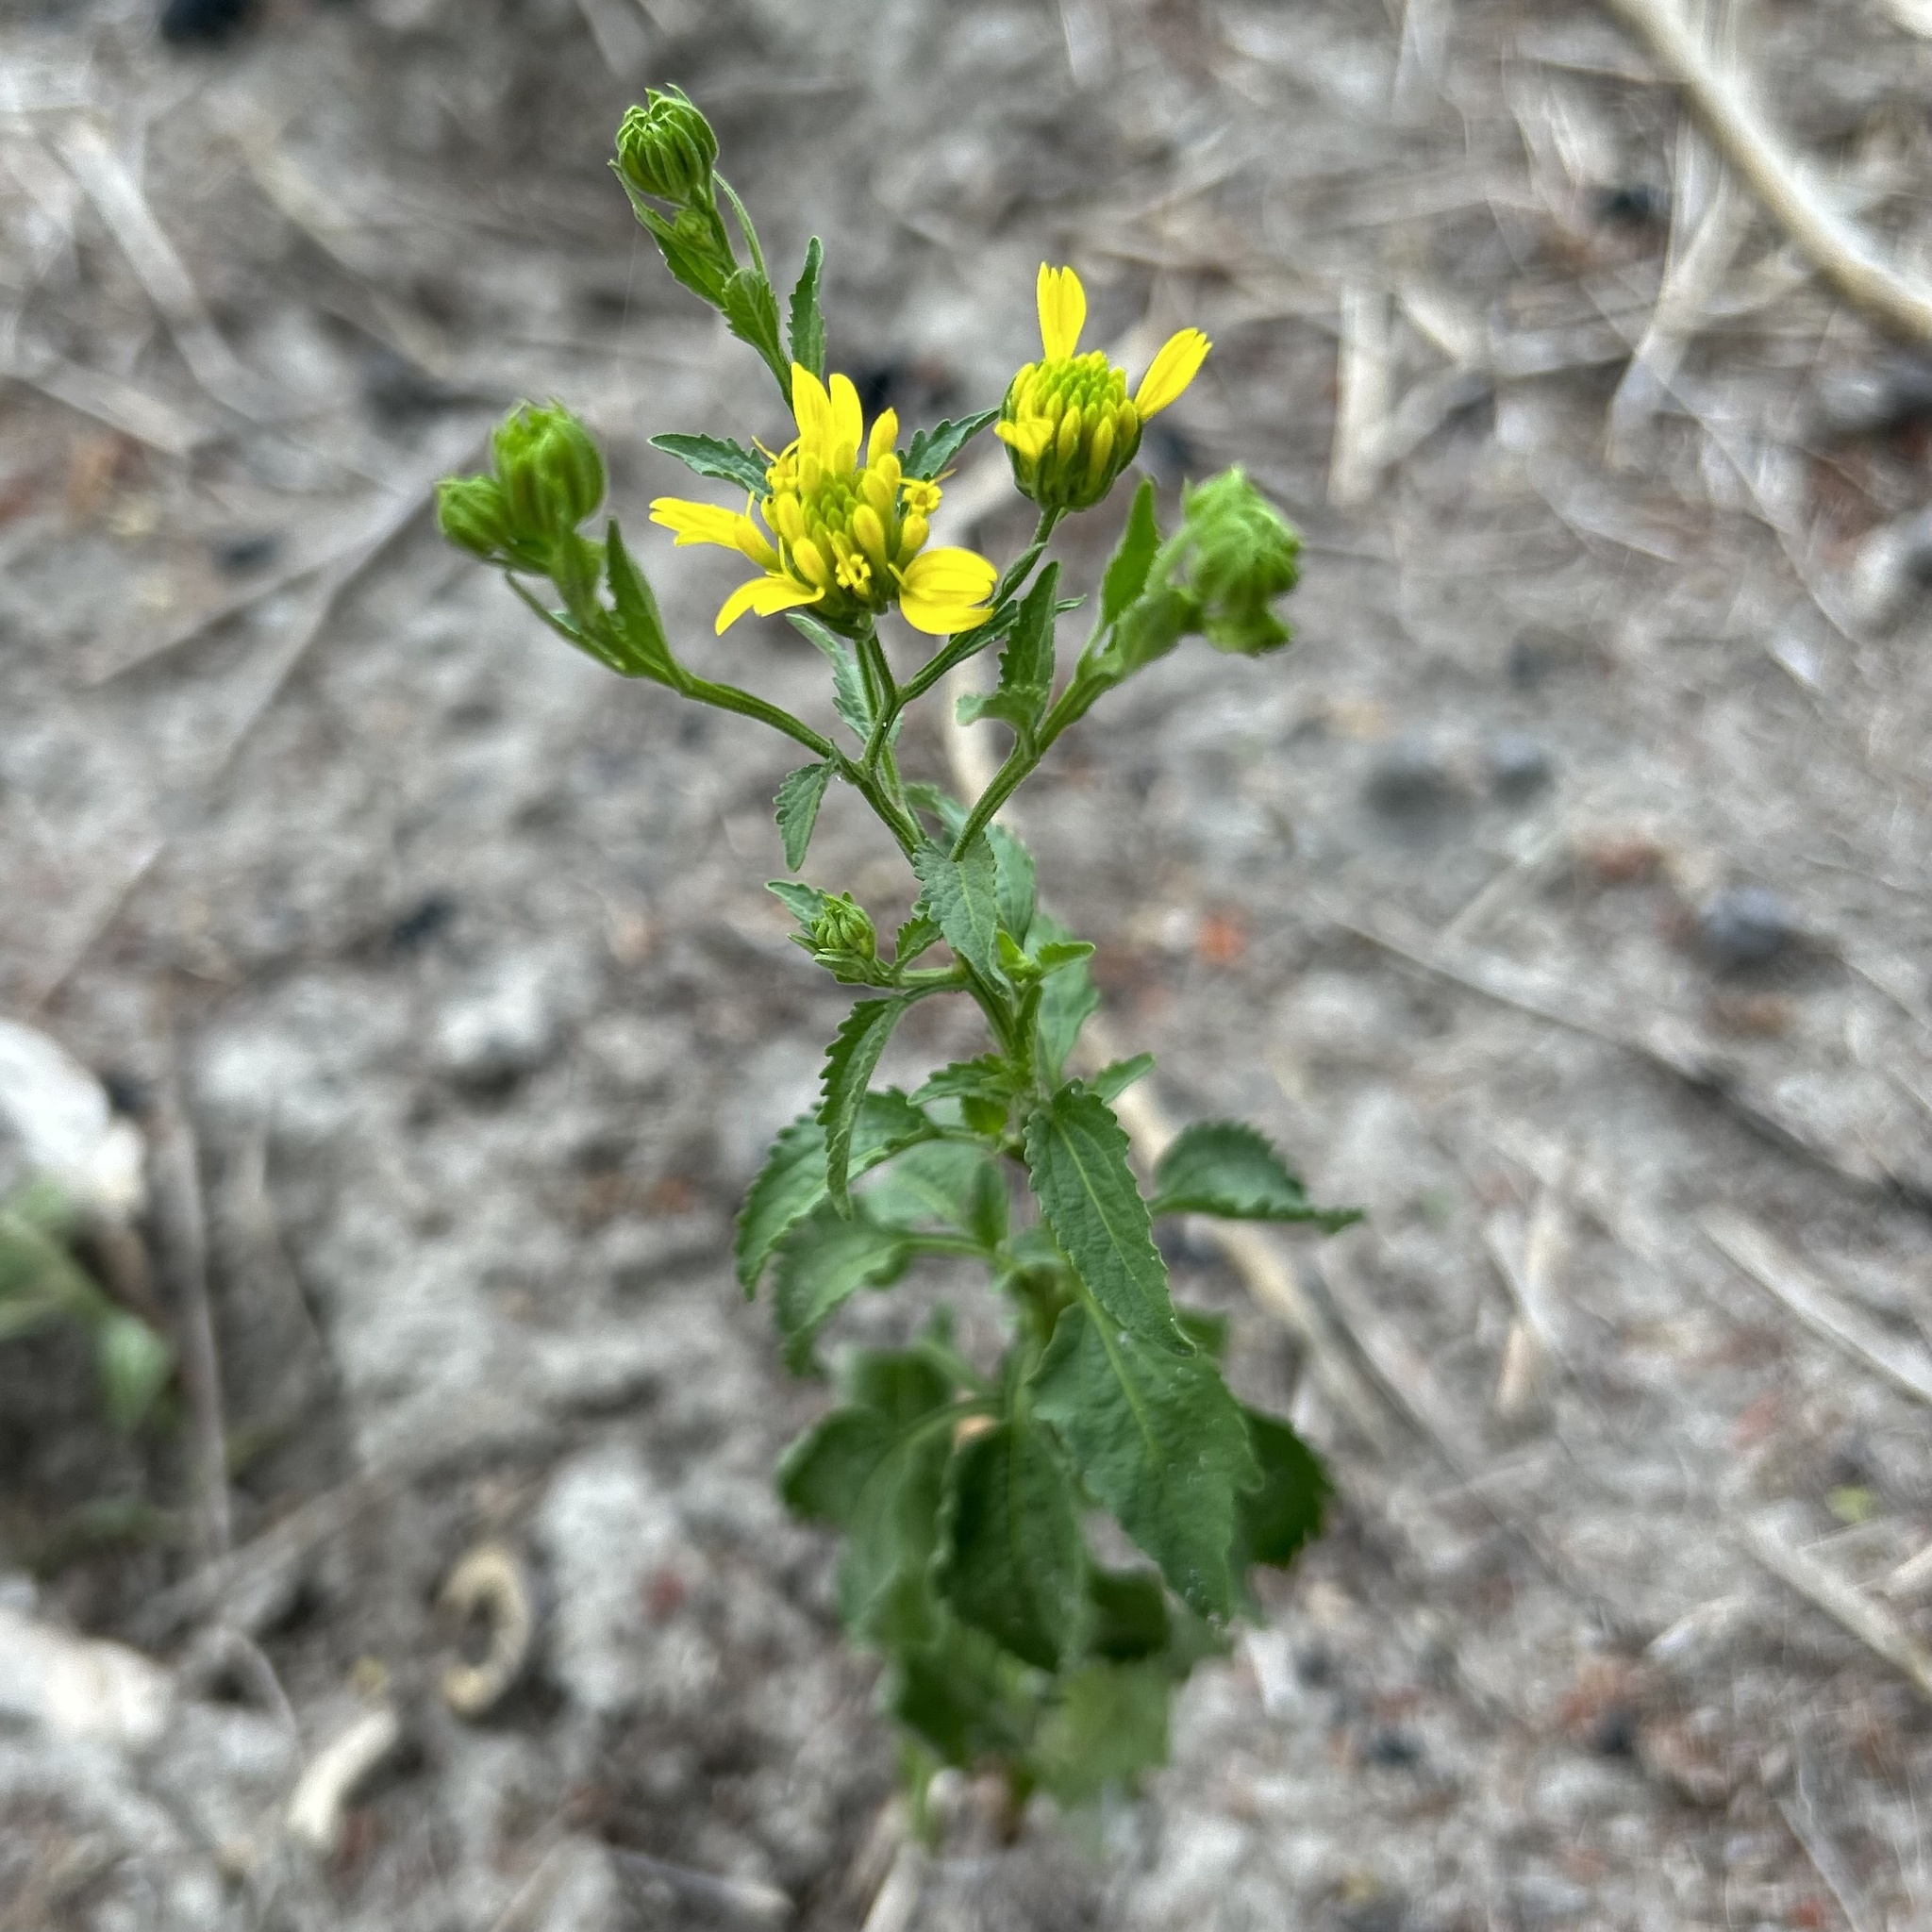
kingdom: Plantae
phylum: Tracheophyta
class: Magnoliopsida
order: Asterales
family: Asteraceae
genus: Calostephane
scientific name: Calostephane divaricata
